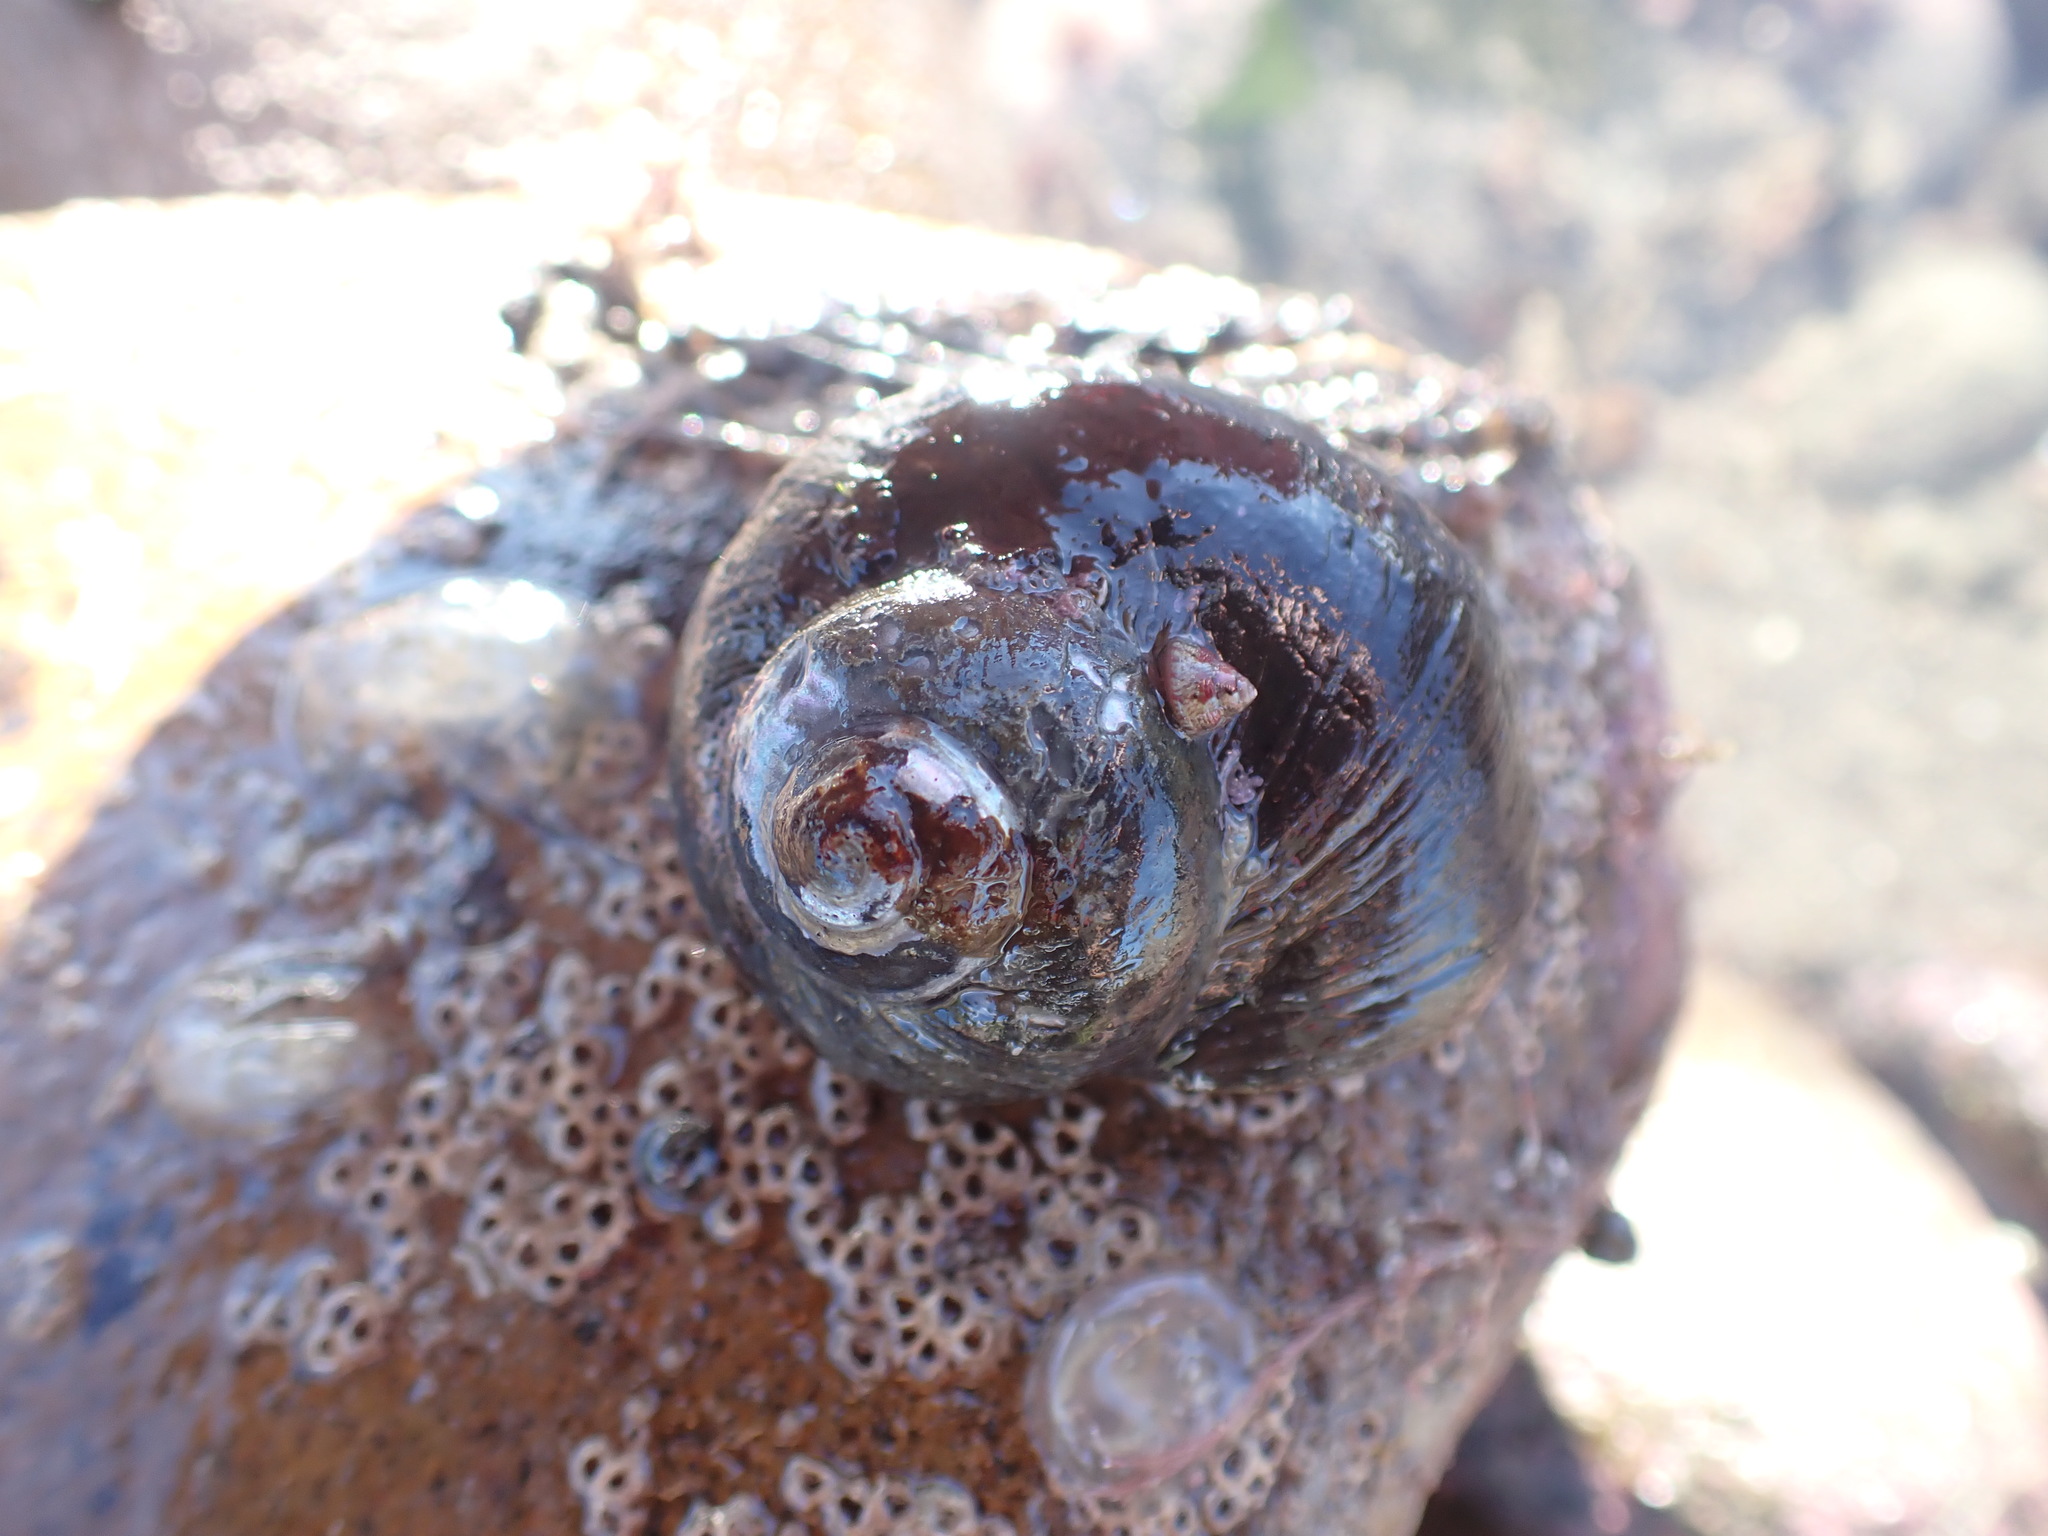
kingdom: Animalia
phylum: Mollusca
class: Gastropoda
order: Trochida
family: Turbinidae
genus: Lunella
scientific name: Lunella smaragda
